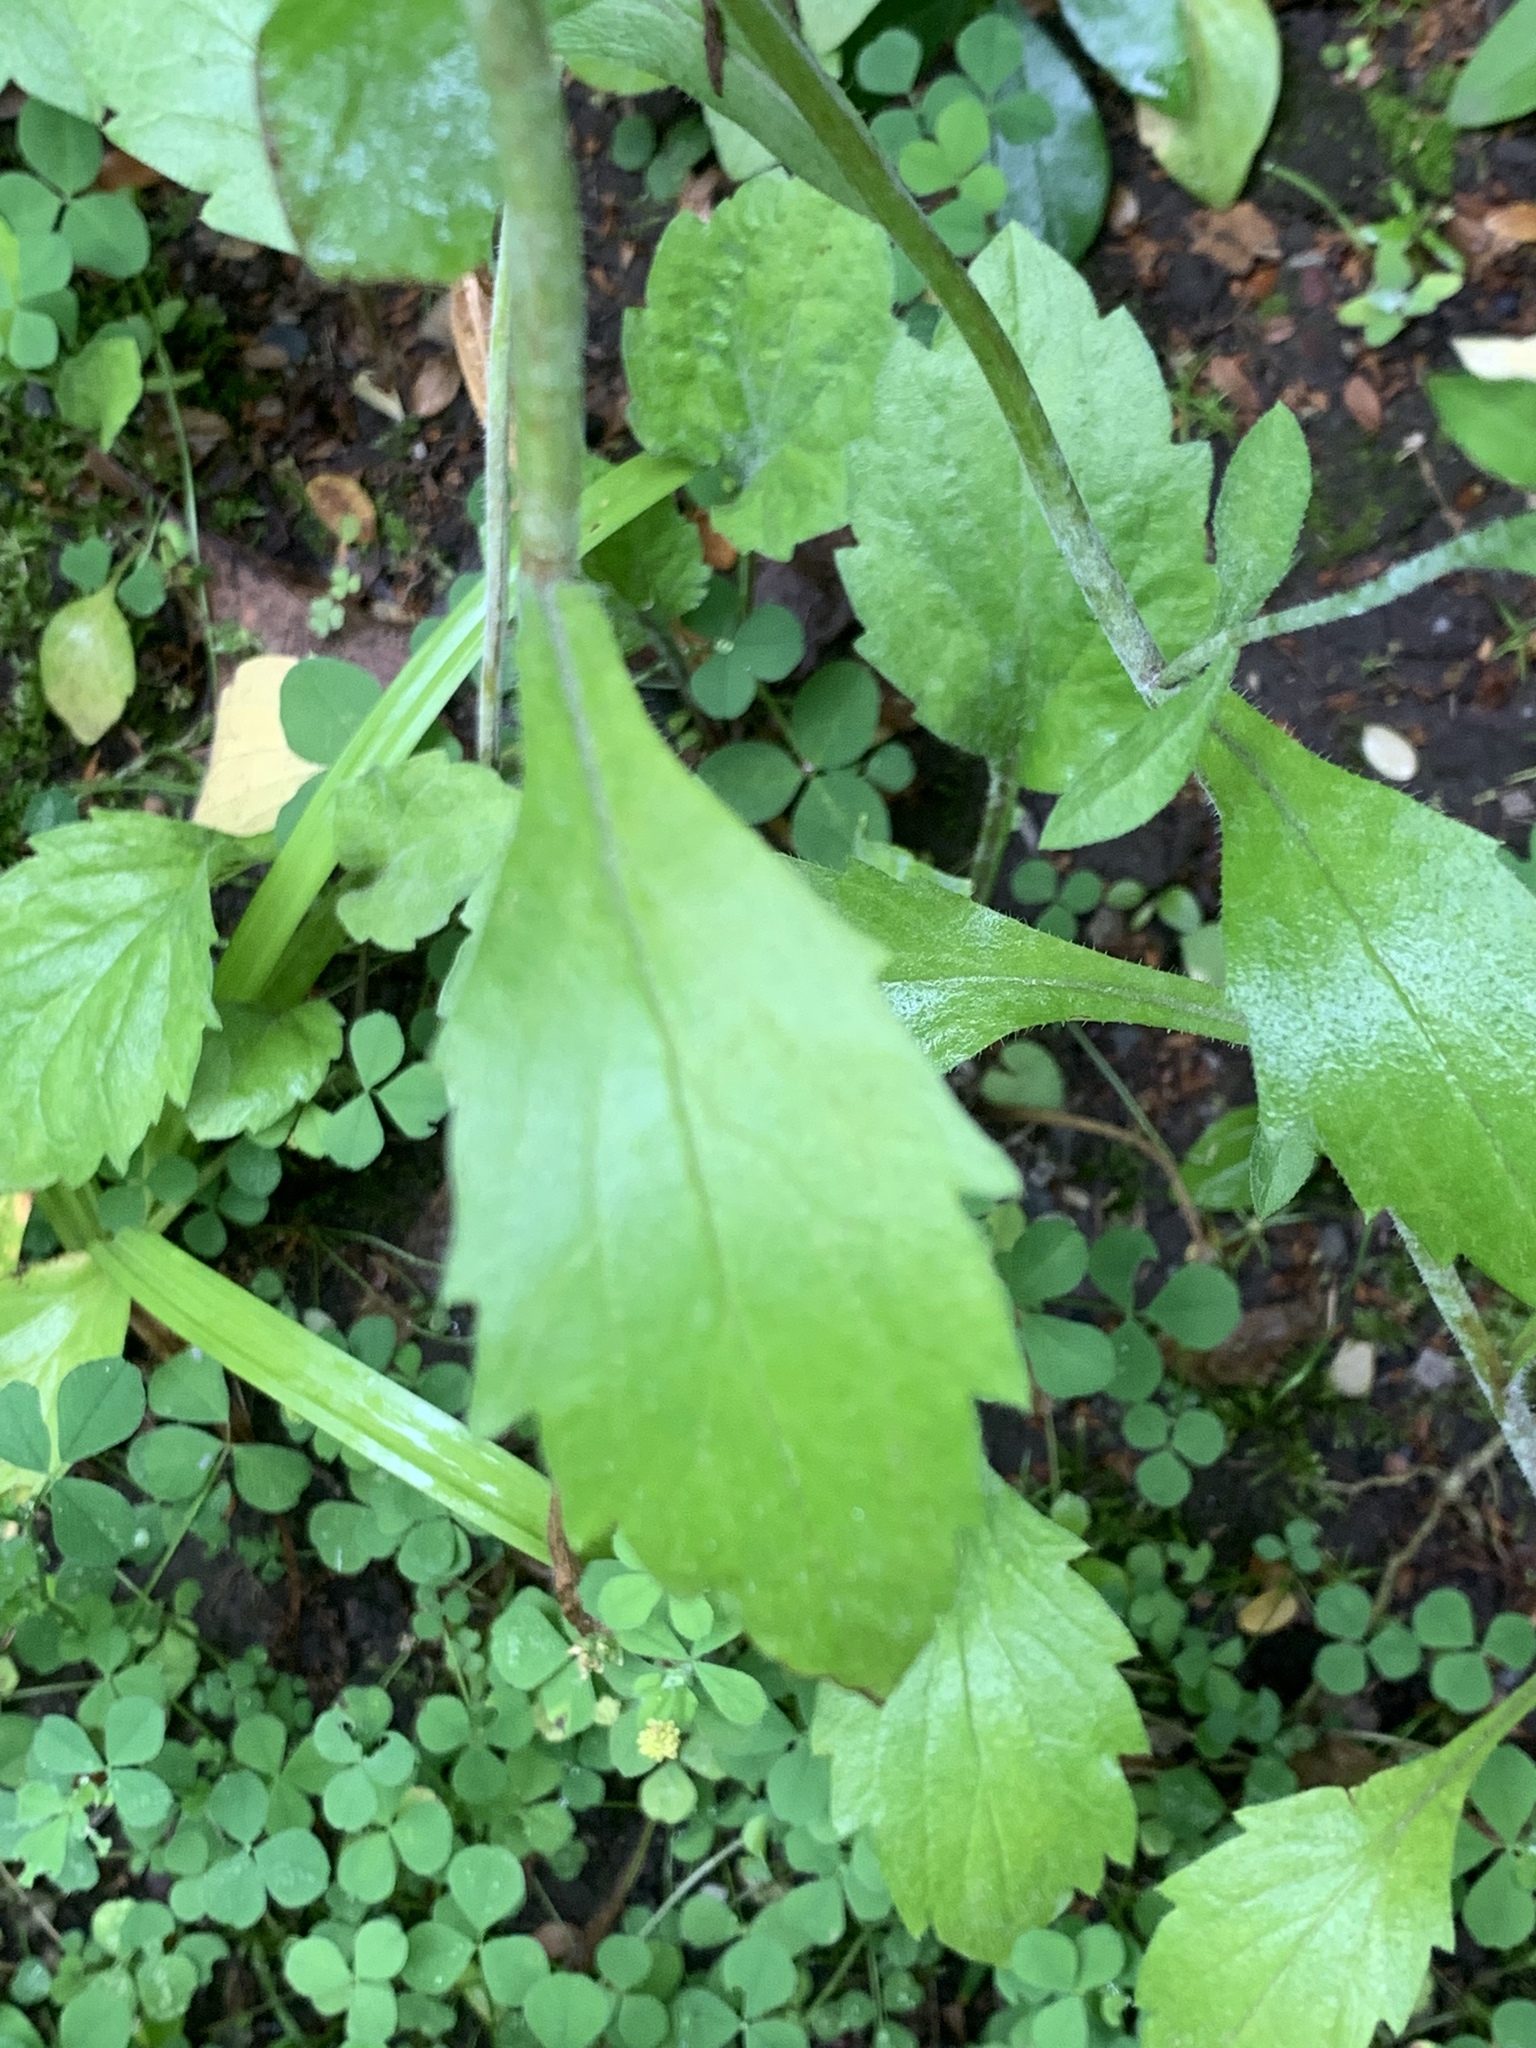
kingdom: Plantae
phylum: Tracheophyta
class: Magnoliopsida
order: Asterales
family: Asteraceae
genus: Erigeron
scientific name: Erigeron annuus
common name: Tall fleabane
